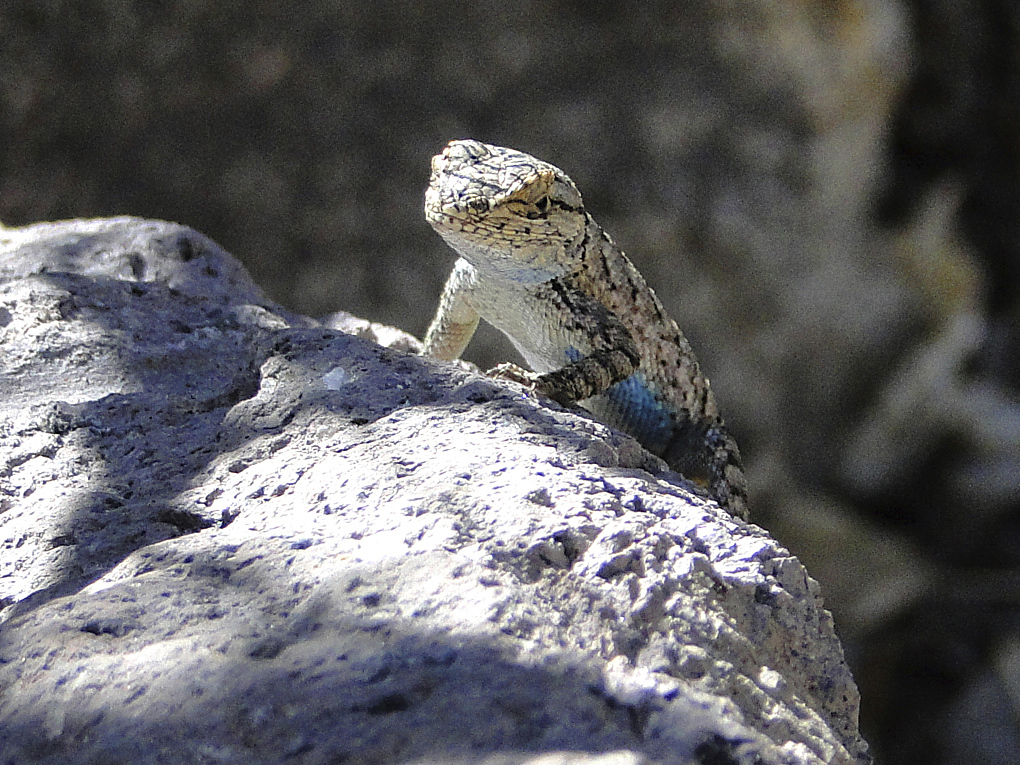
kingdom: Animalia
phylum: Chordata
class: Squamata
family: Phrynosomatidae
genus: Sceloporus
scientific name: Sceloporus occidentalis
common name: Western fence lizard
